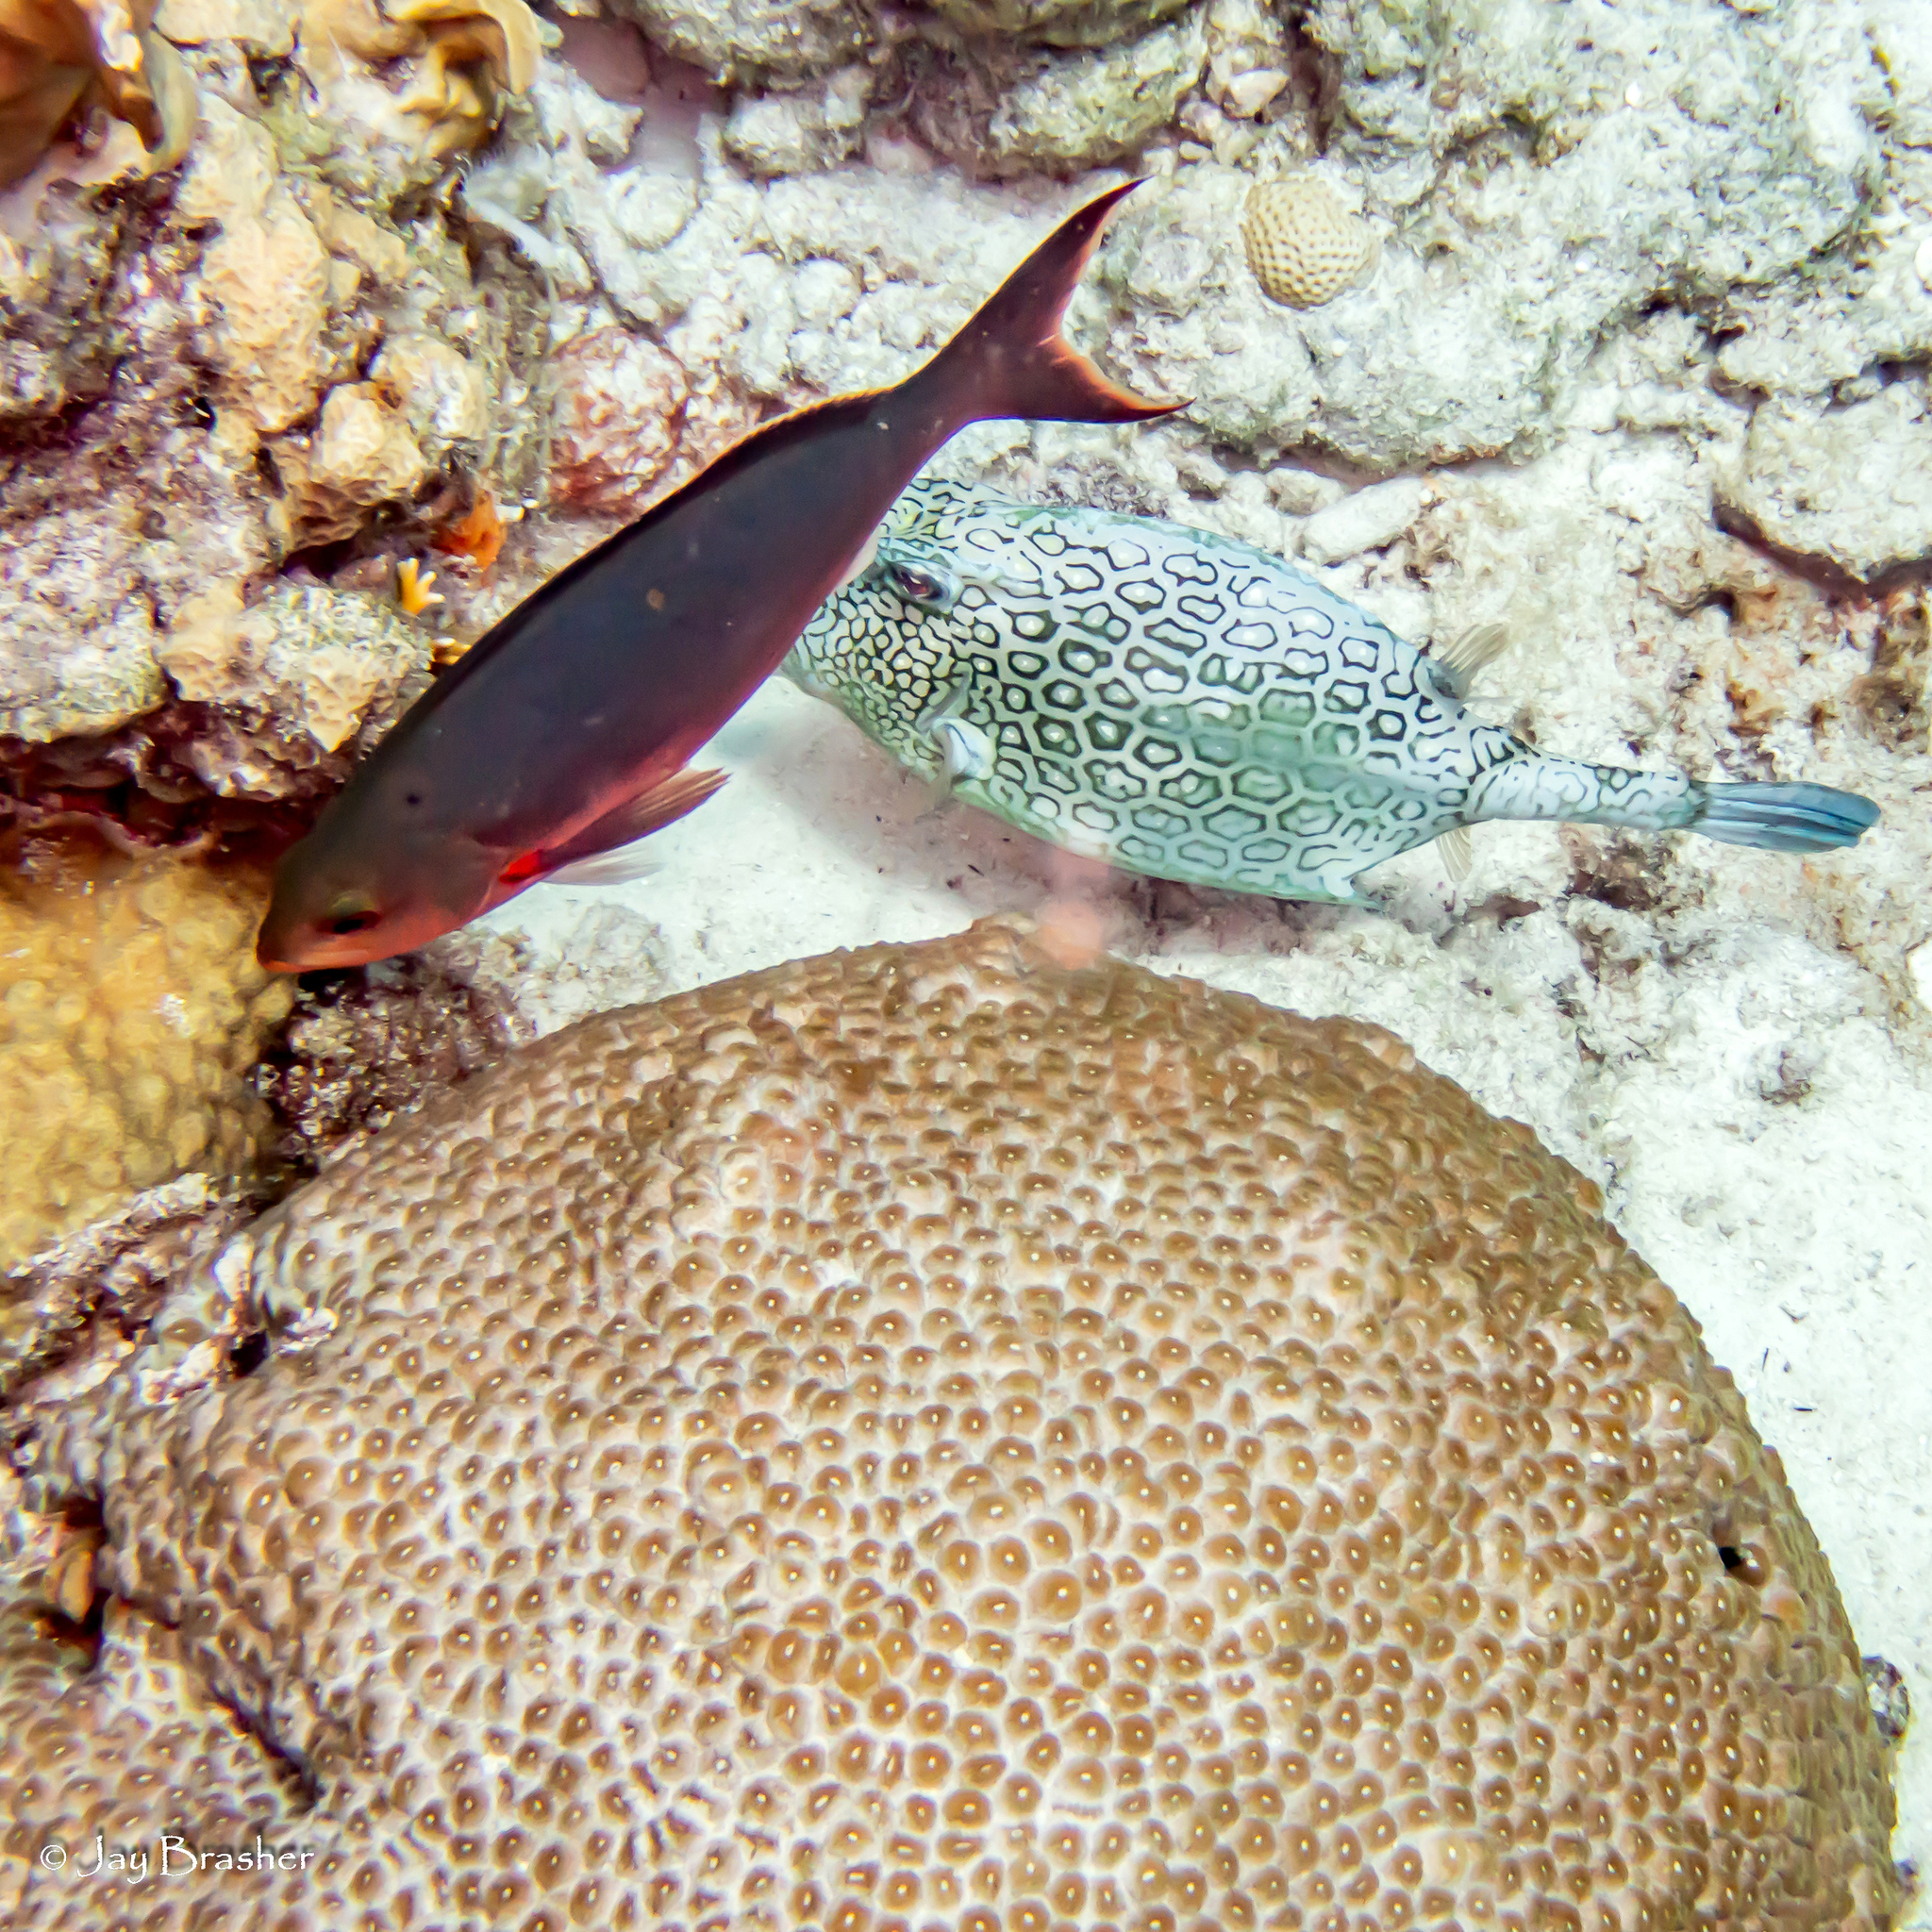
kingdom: Animalia
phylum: Cnidaria
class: Anthozoa
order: Scleractinia
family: Montastraeidae
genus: Montastraea
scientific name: Montastraea cavernosa
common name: Great star coral
